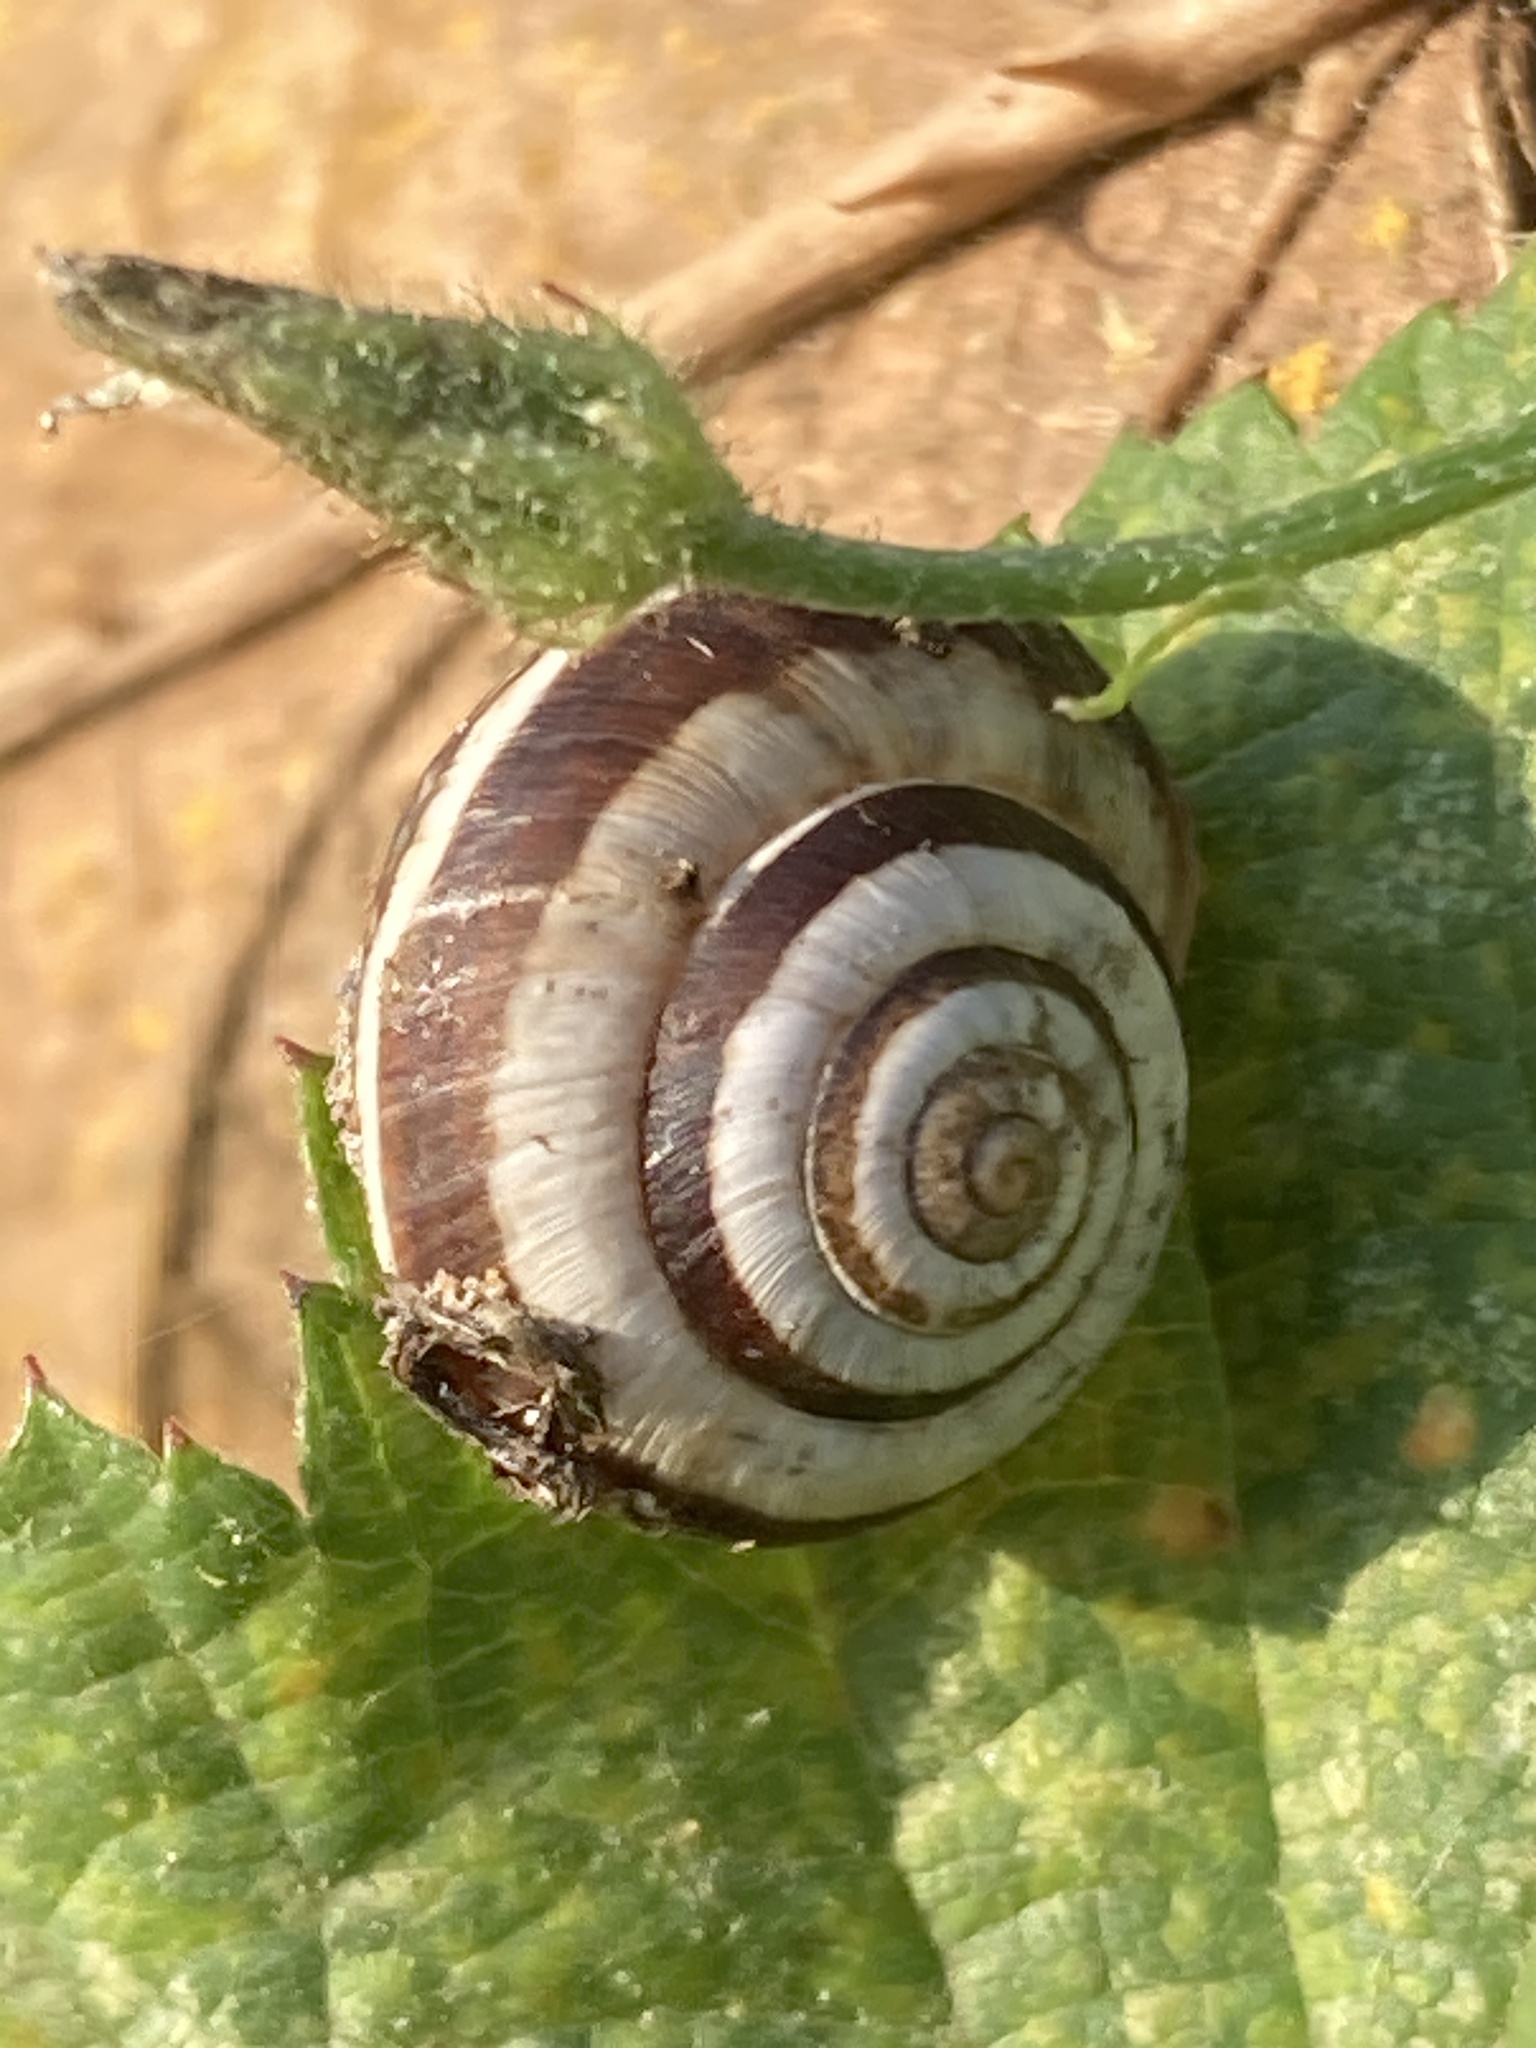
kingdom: Animalia
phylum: Mollusca
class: Gastropoda
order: Stylommatophora
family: Geomitridae
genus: Cernuella
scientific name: Cernuella virgata
